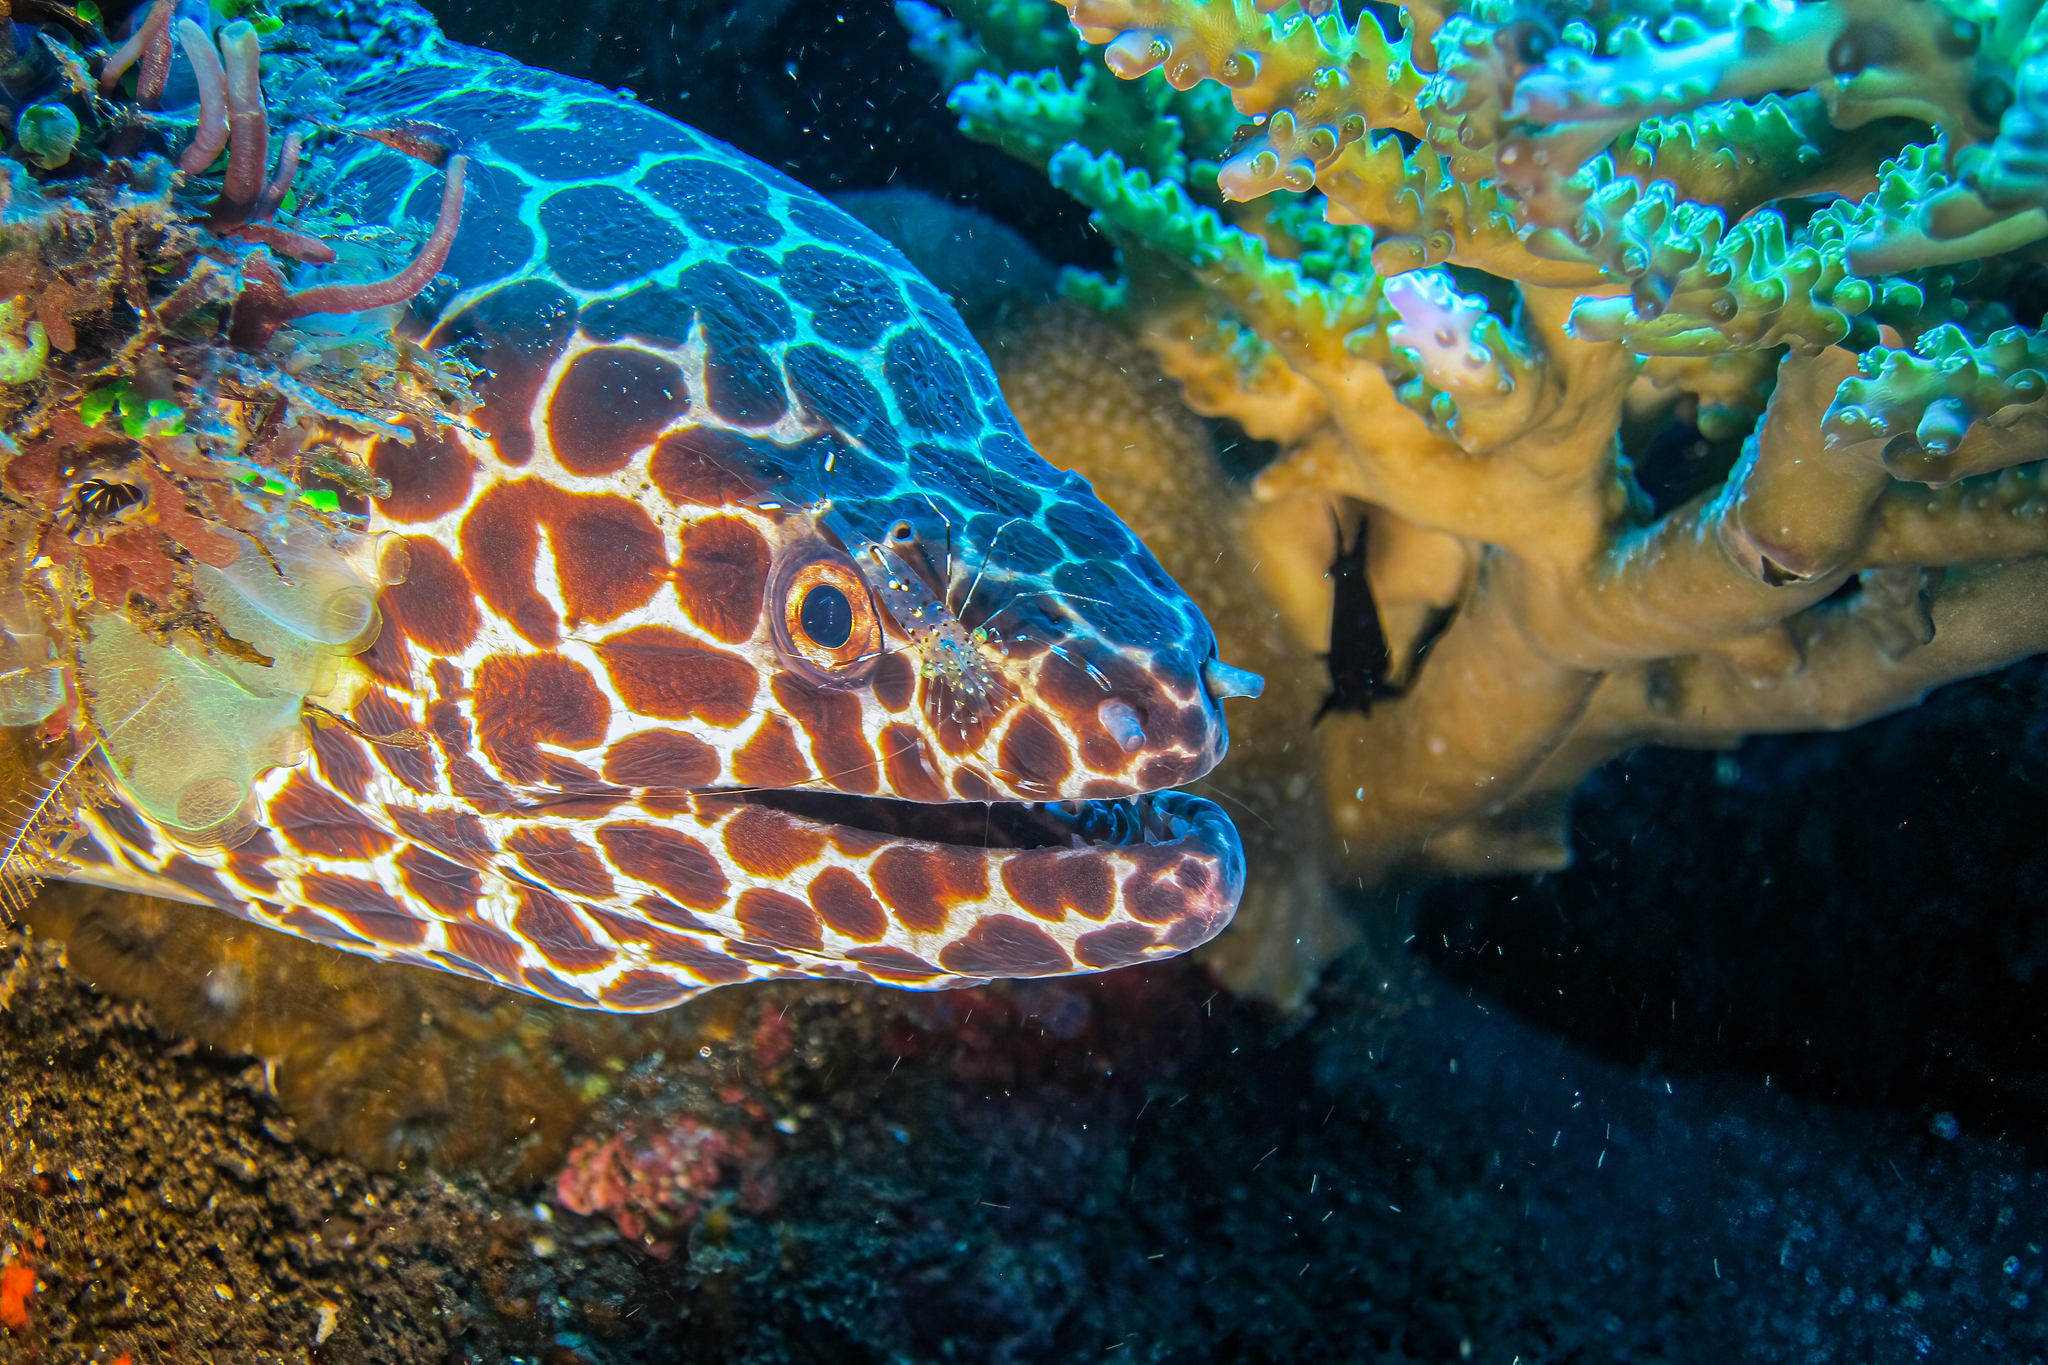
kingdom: Animalia
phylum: Chordata
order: Anguilliformes
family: Muraenidae
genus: Gymnothorax
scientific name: Gymnothorax favagineus
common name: Honeycomb moray
